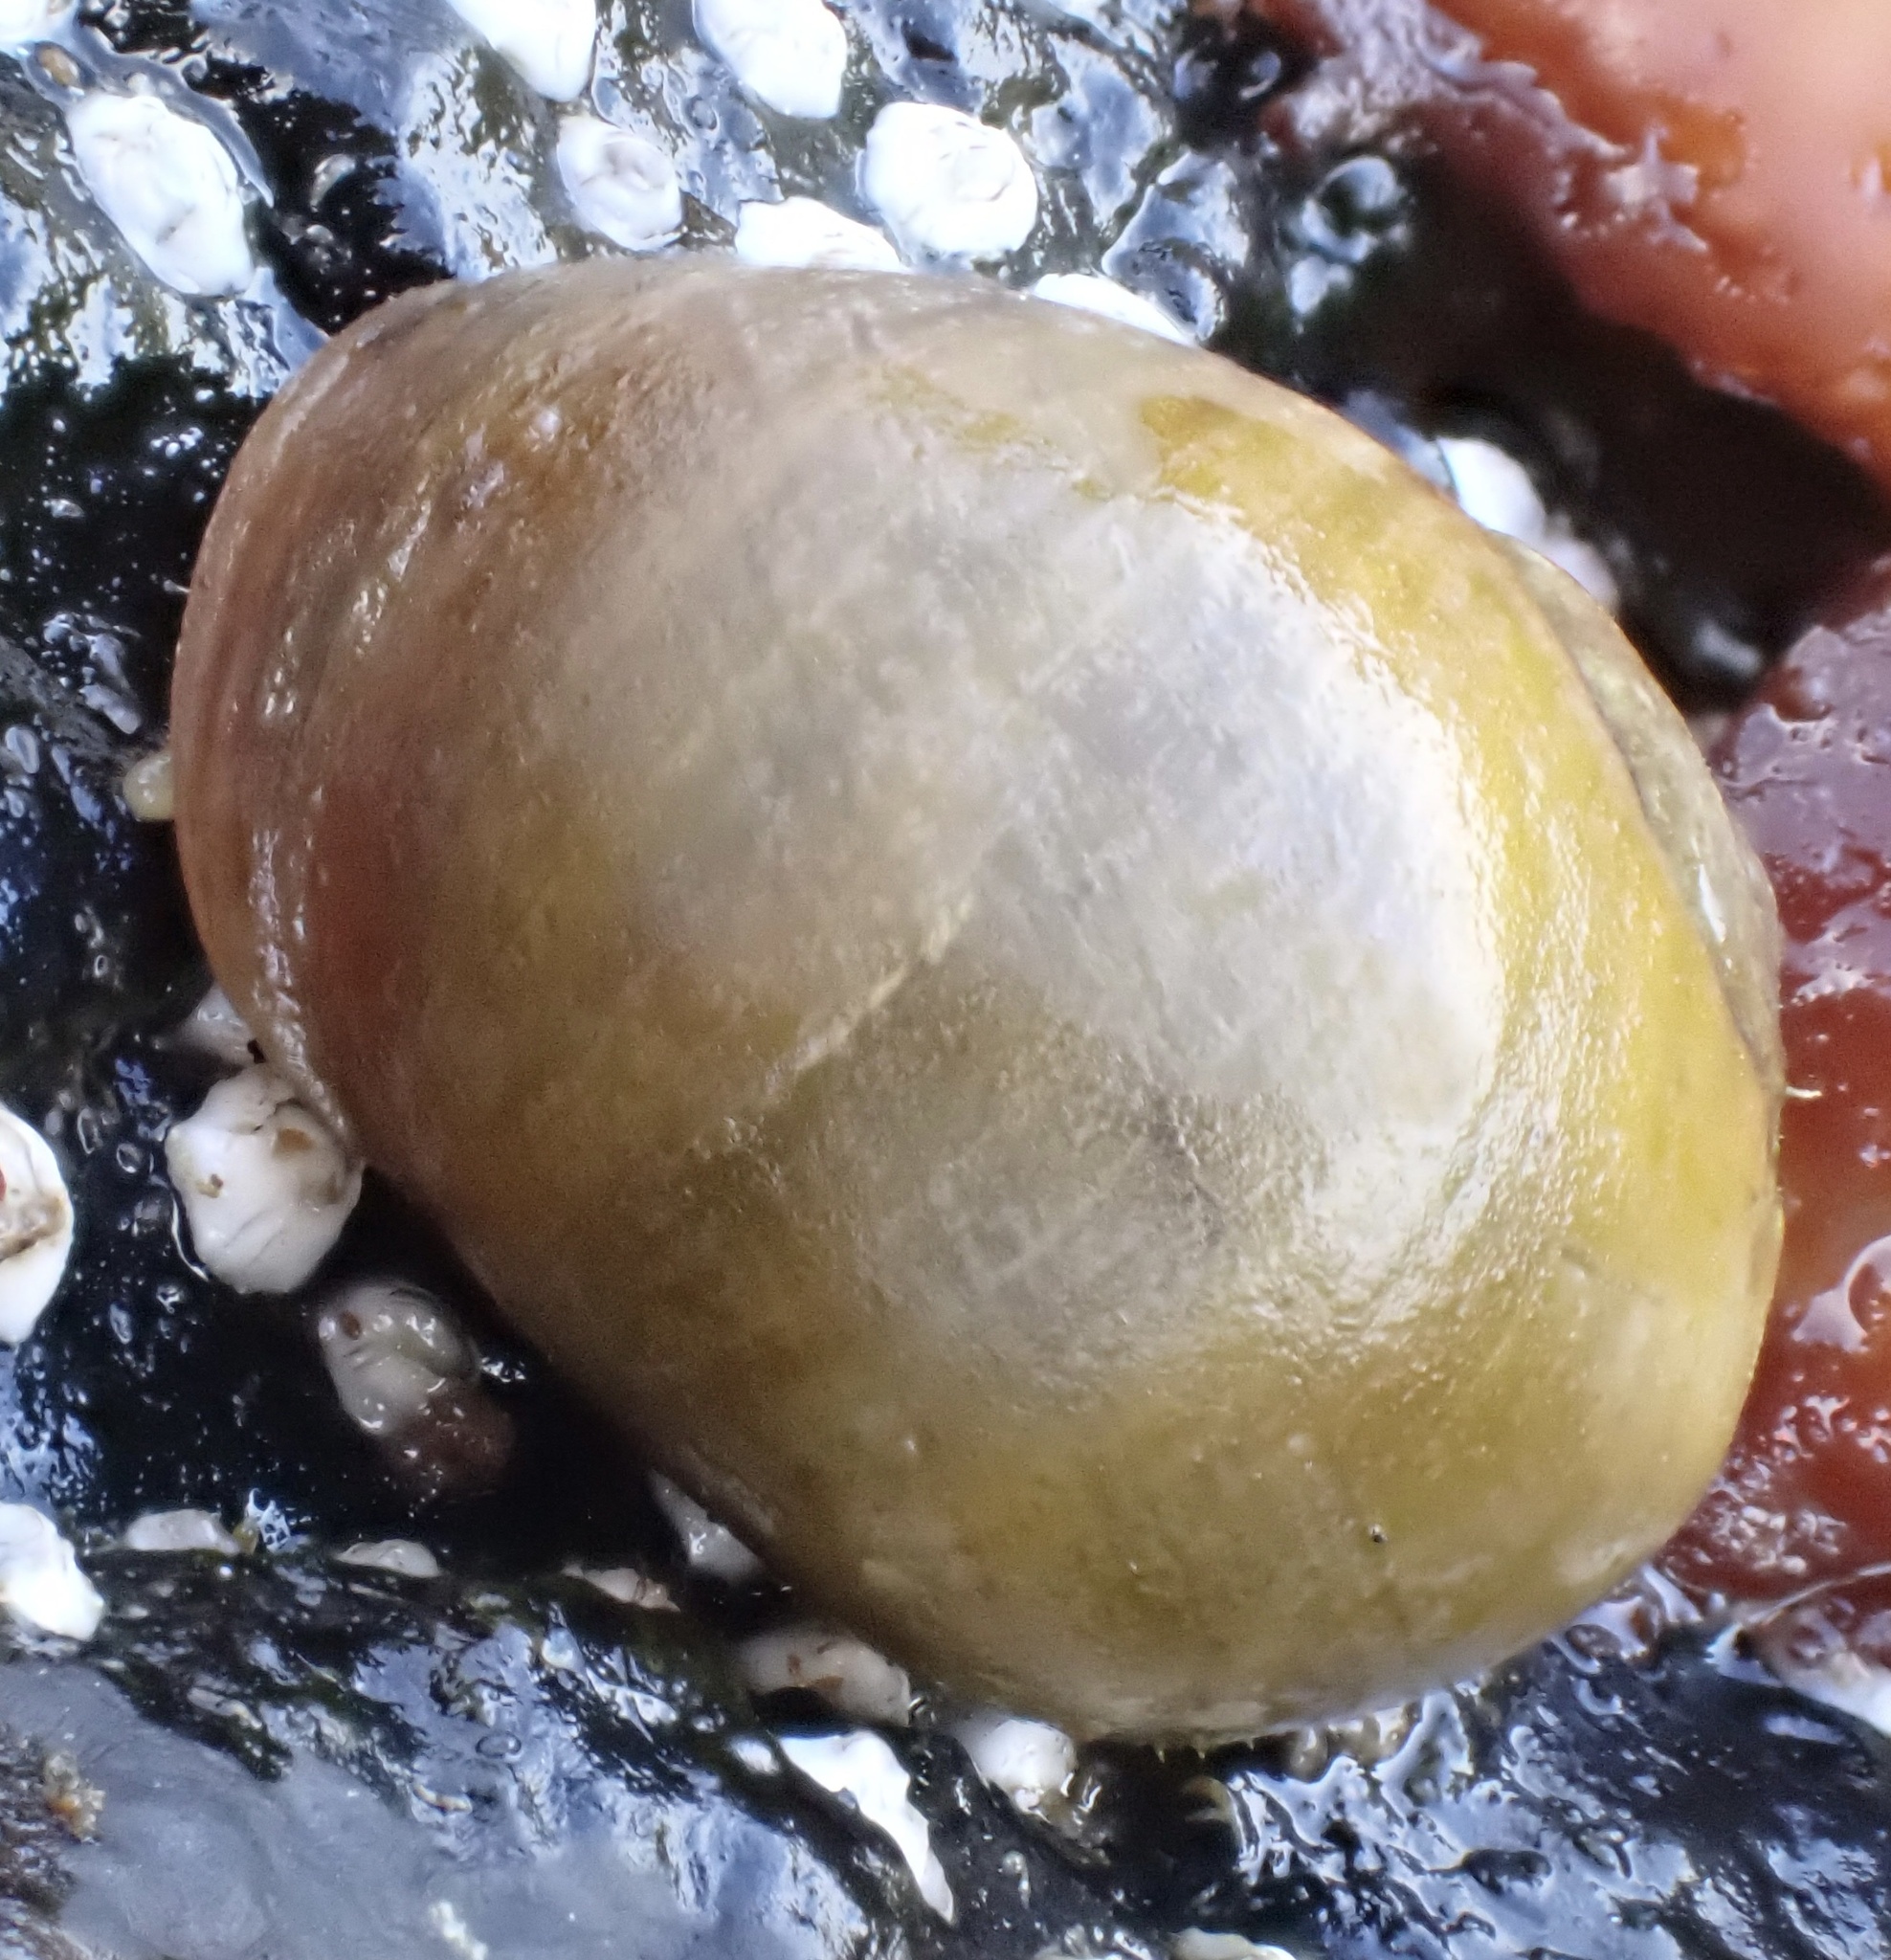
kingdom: Animalia
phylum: Mollusca
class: Gastropoda
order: Littorinimorpha
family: Littorinidae
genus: Littorina
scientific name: Littorina
